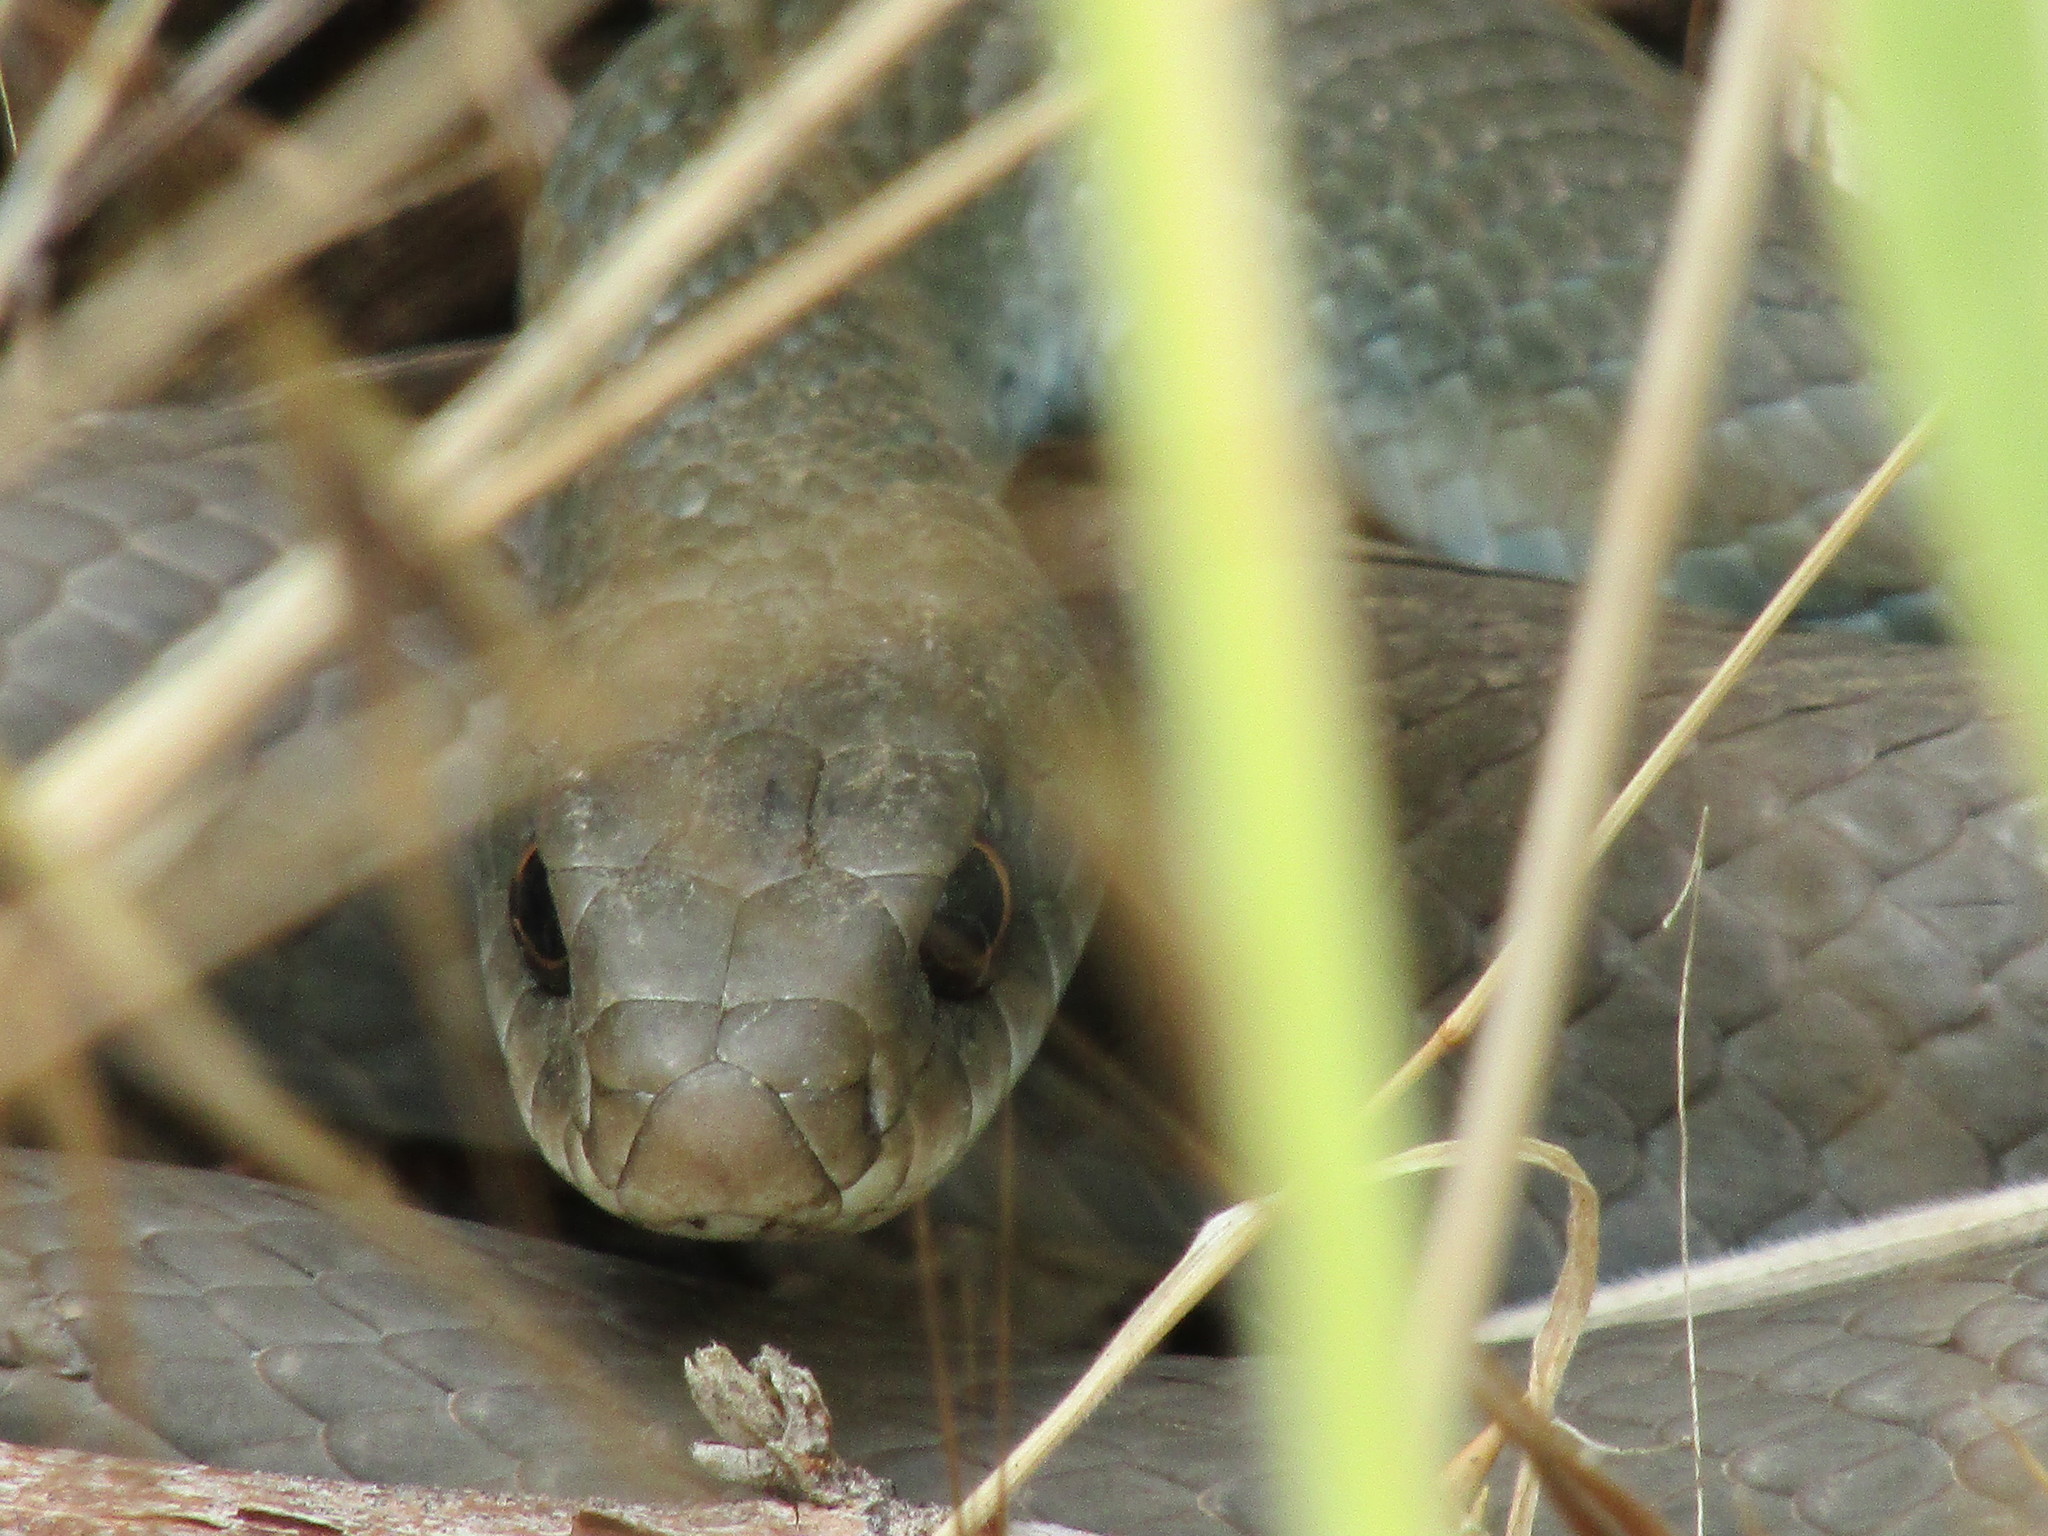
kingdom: Animalia
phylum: Chordata
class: Squamata
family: Colubridae
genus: Coluber
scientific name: Coluber constrictor
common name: Eastern racer
